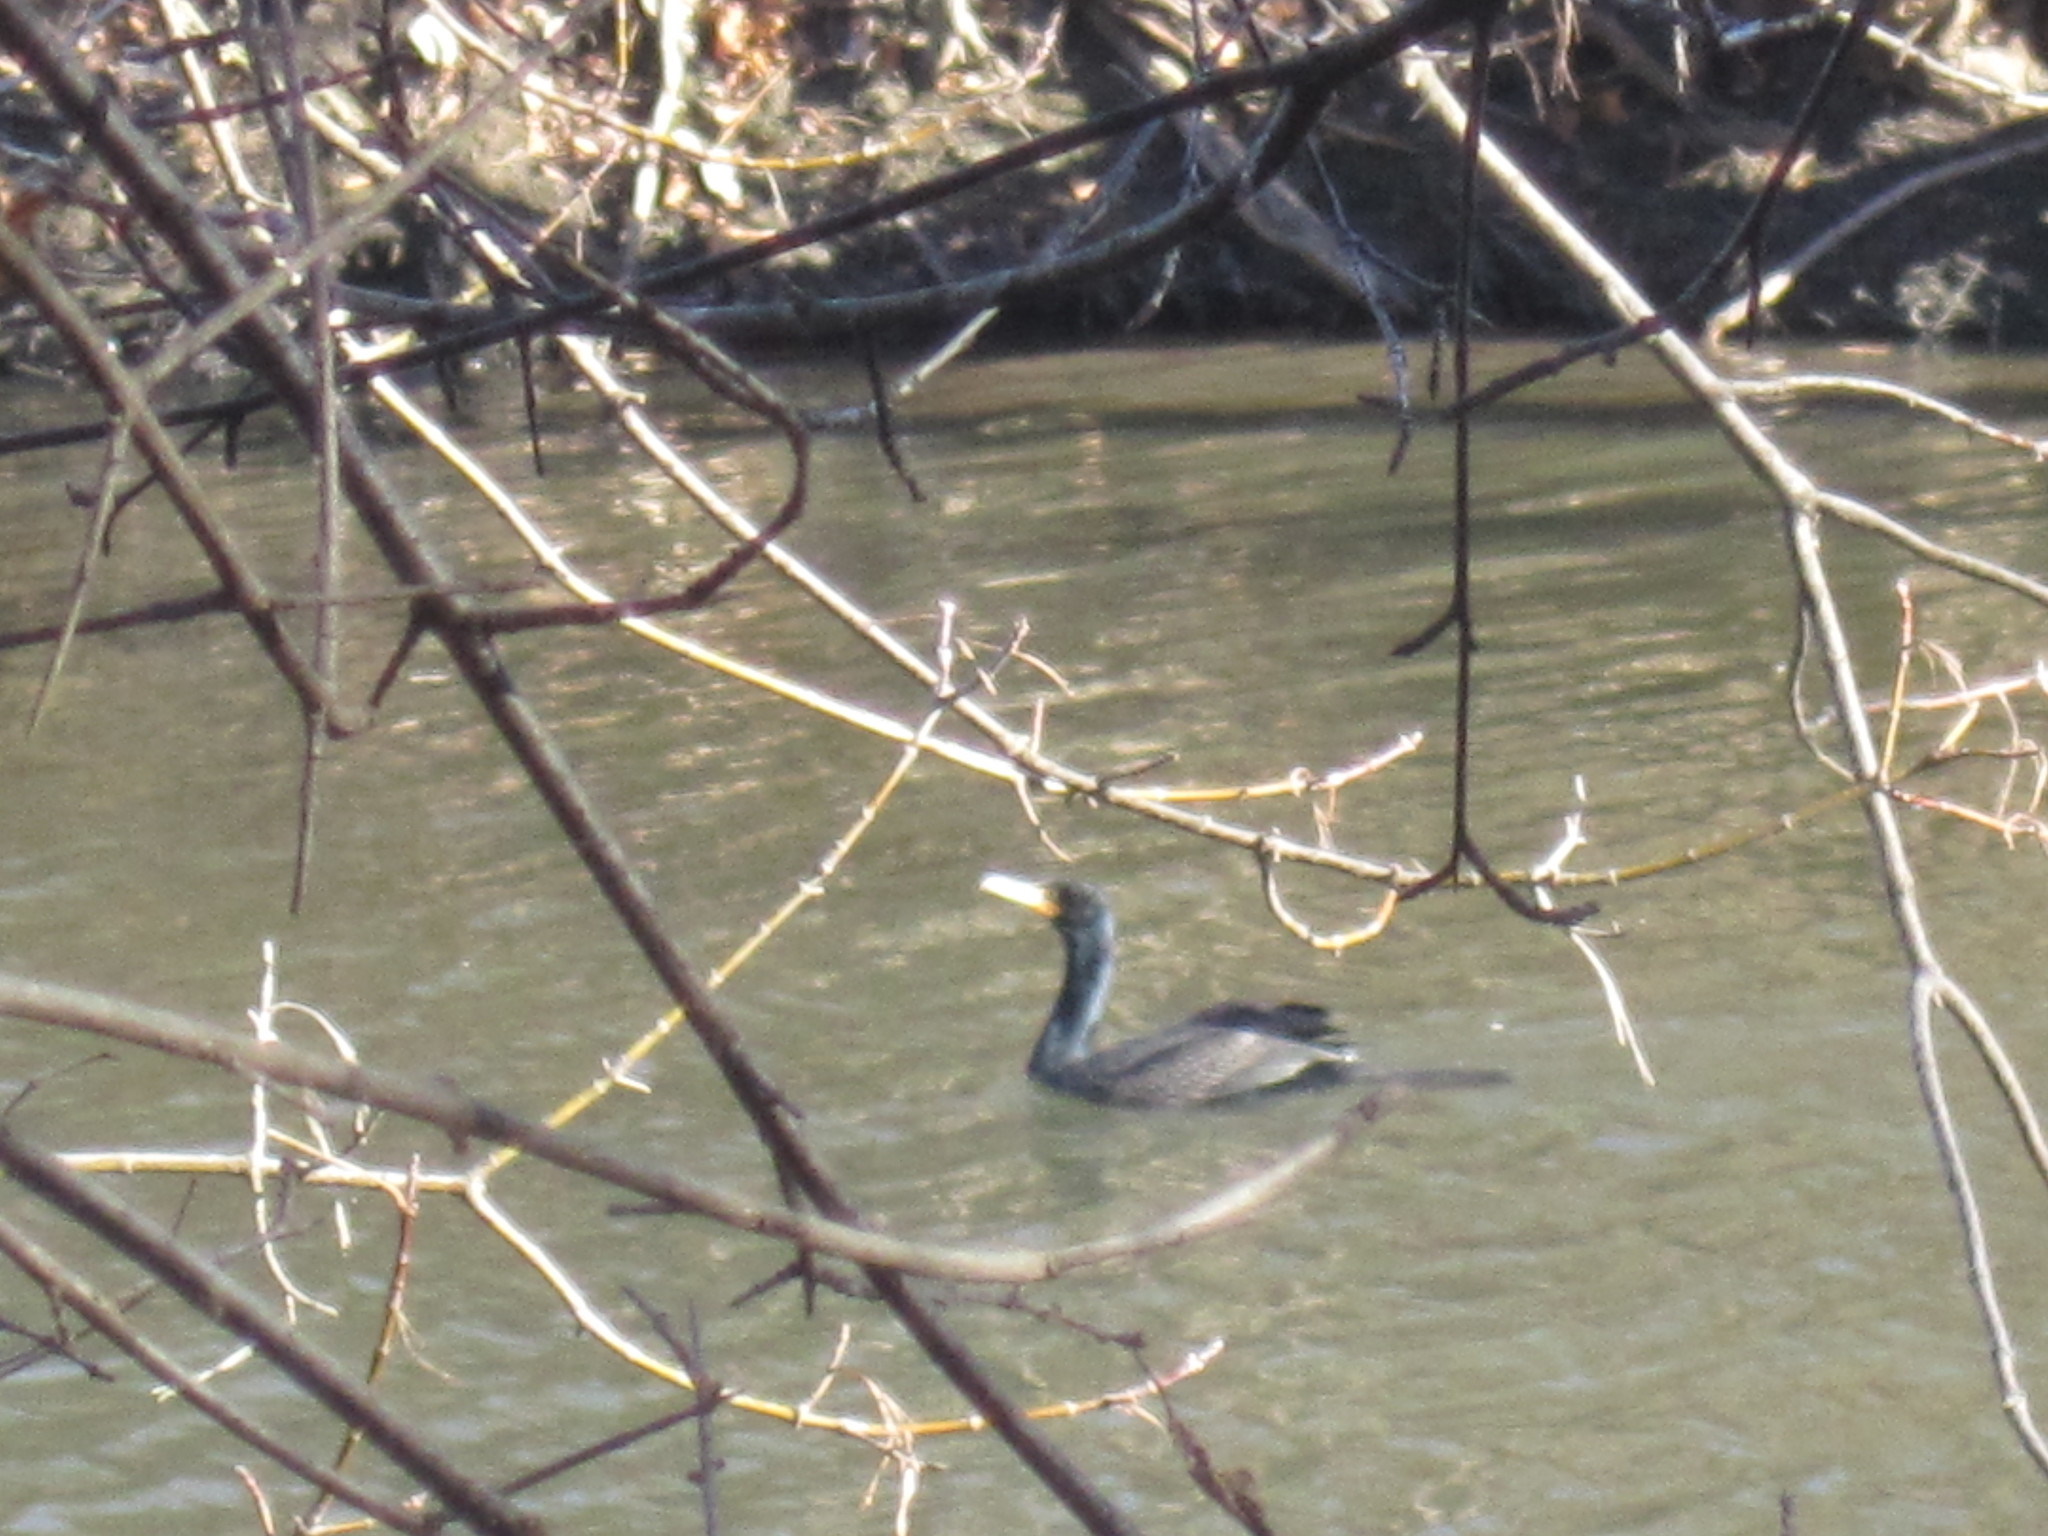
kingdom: Animalia
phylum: Chordata
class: Aves
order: Suliformes
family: Phalacrocoracidae
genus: Phalacrocorax
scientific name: Phalacrocorax auritus
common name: Double-crested cormorant
